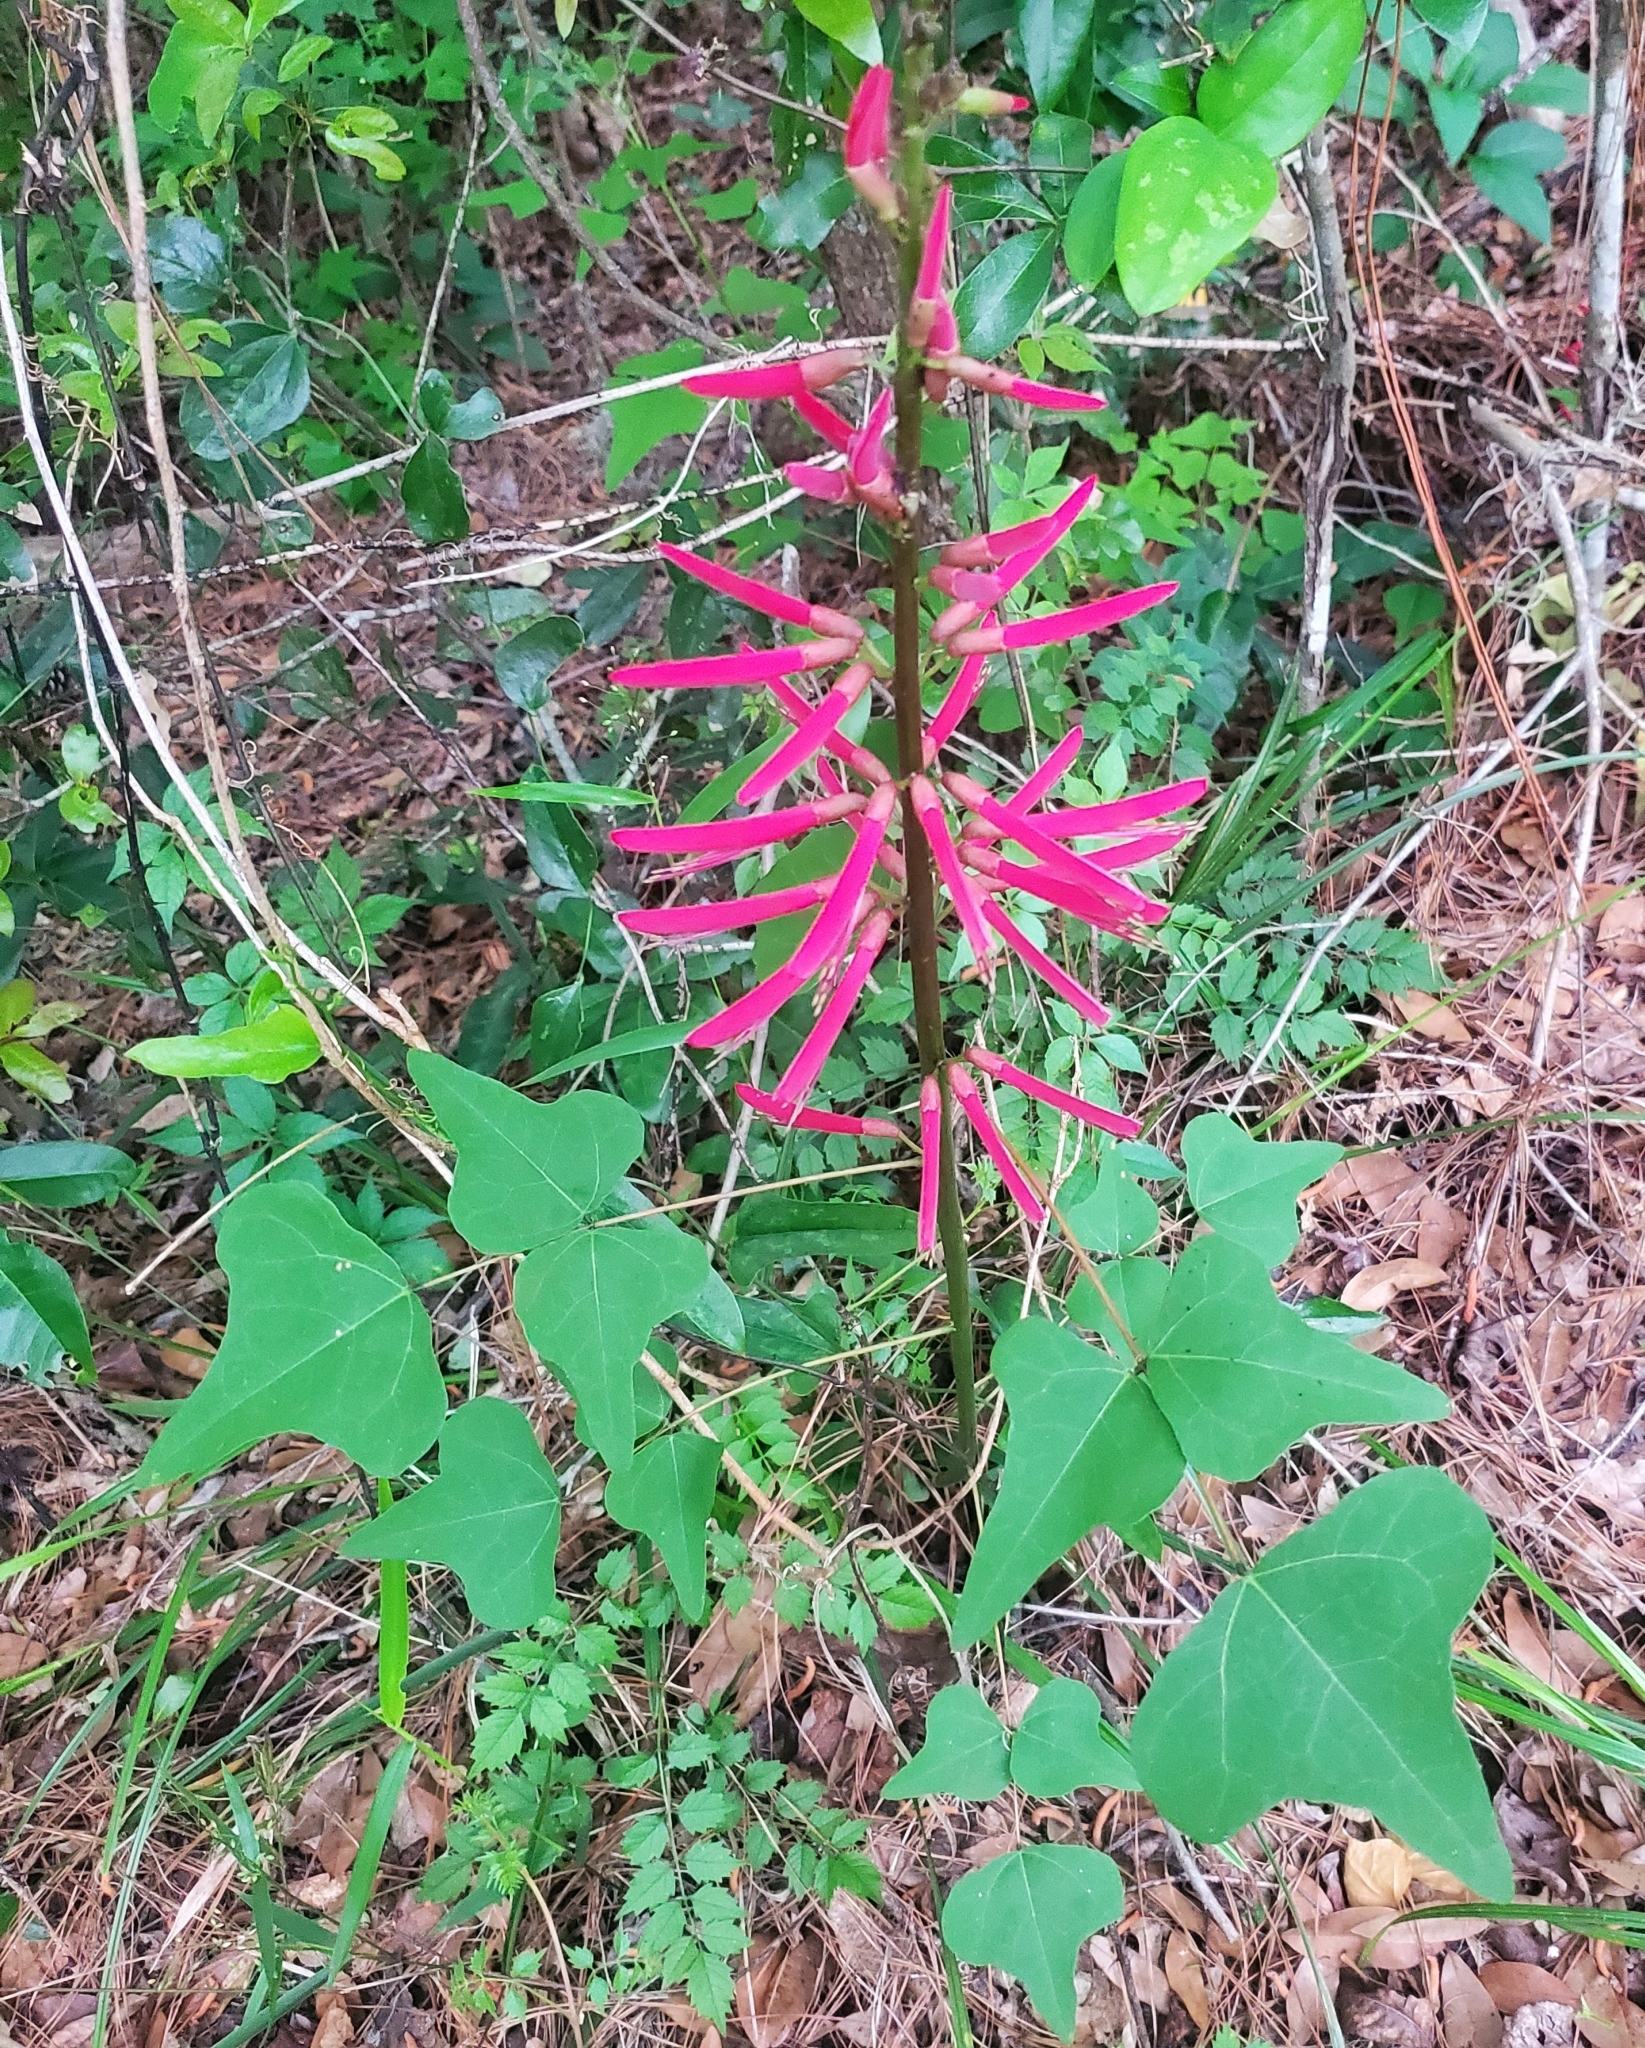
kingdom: Plantae
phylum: Tracheophyta
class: Magnoliopsida
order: Fabales
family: Fabaceae
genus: Erythrina
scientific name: Erythrina herbacea
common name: Coral-bean
